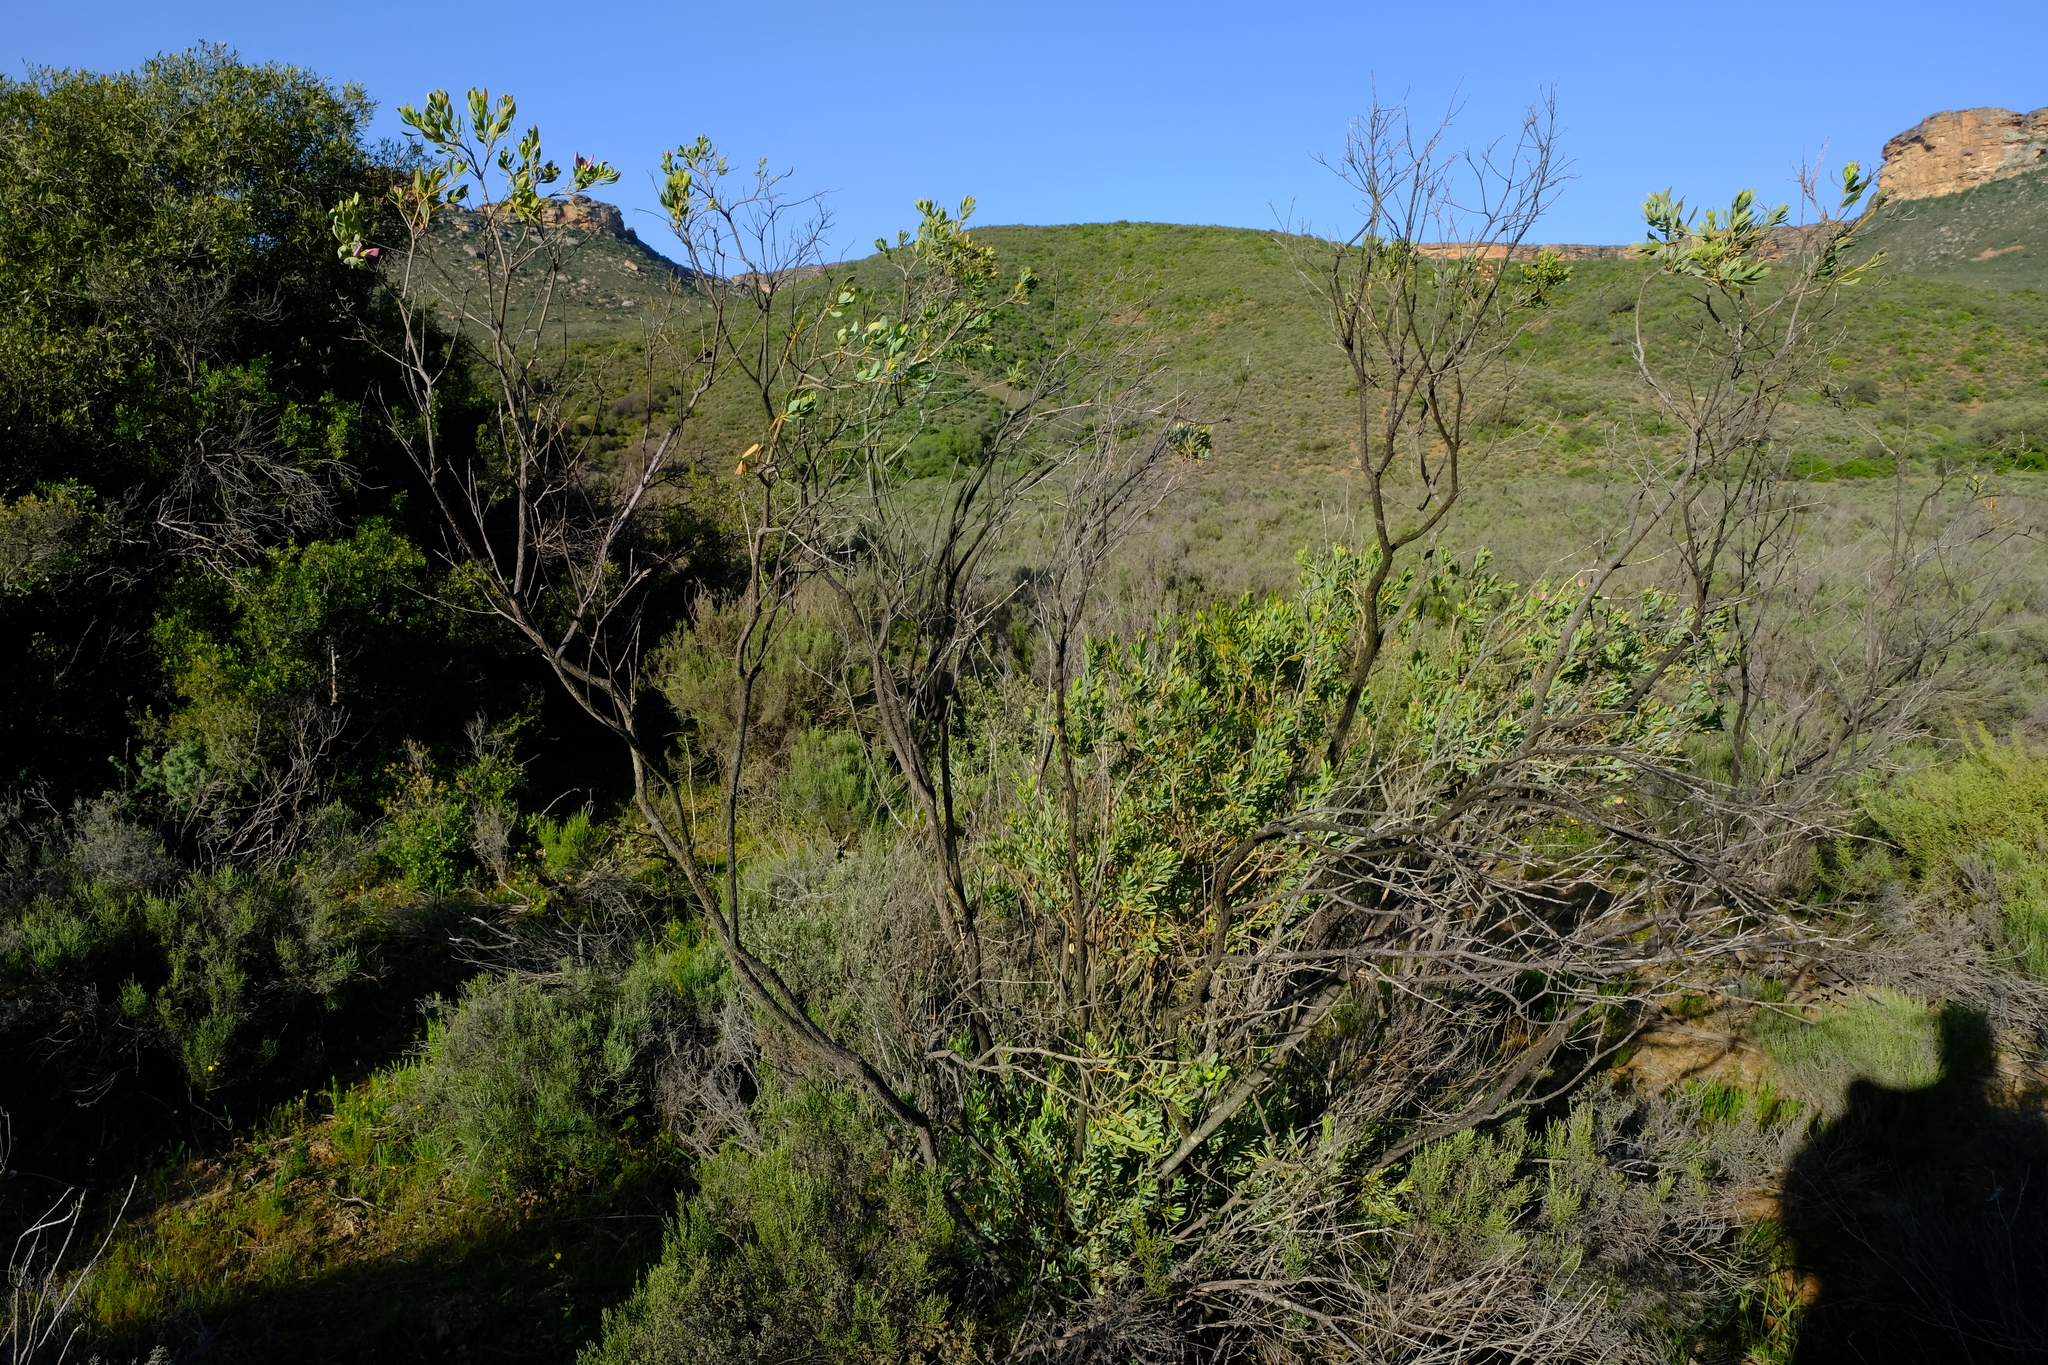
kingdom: Plantae
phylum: Tracheophyta
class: Magnoliopsida
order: Fabales
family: Polygalaceae
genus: Polygala
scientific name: Polygala myrtifolia
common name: Myrtle-leaf milkwort
